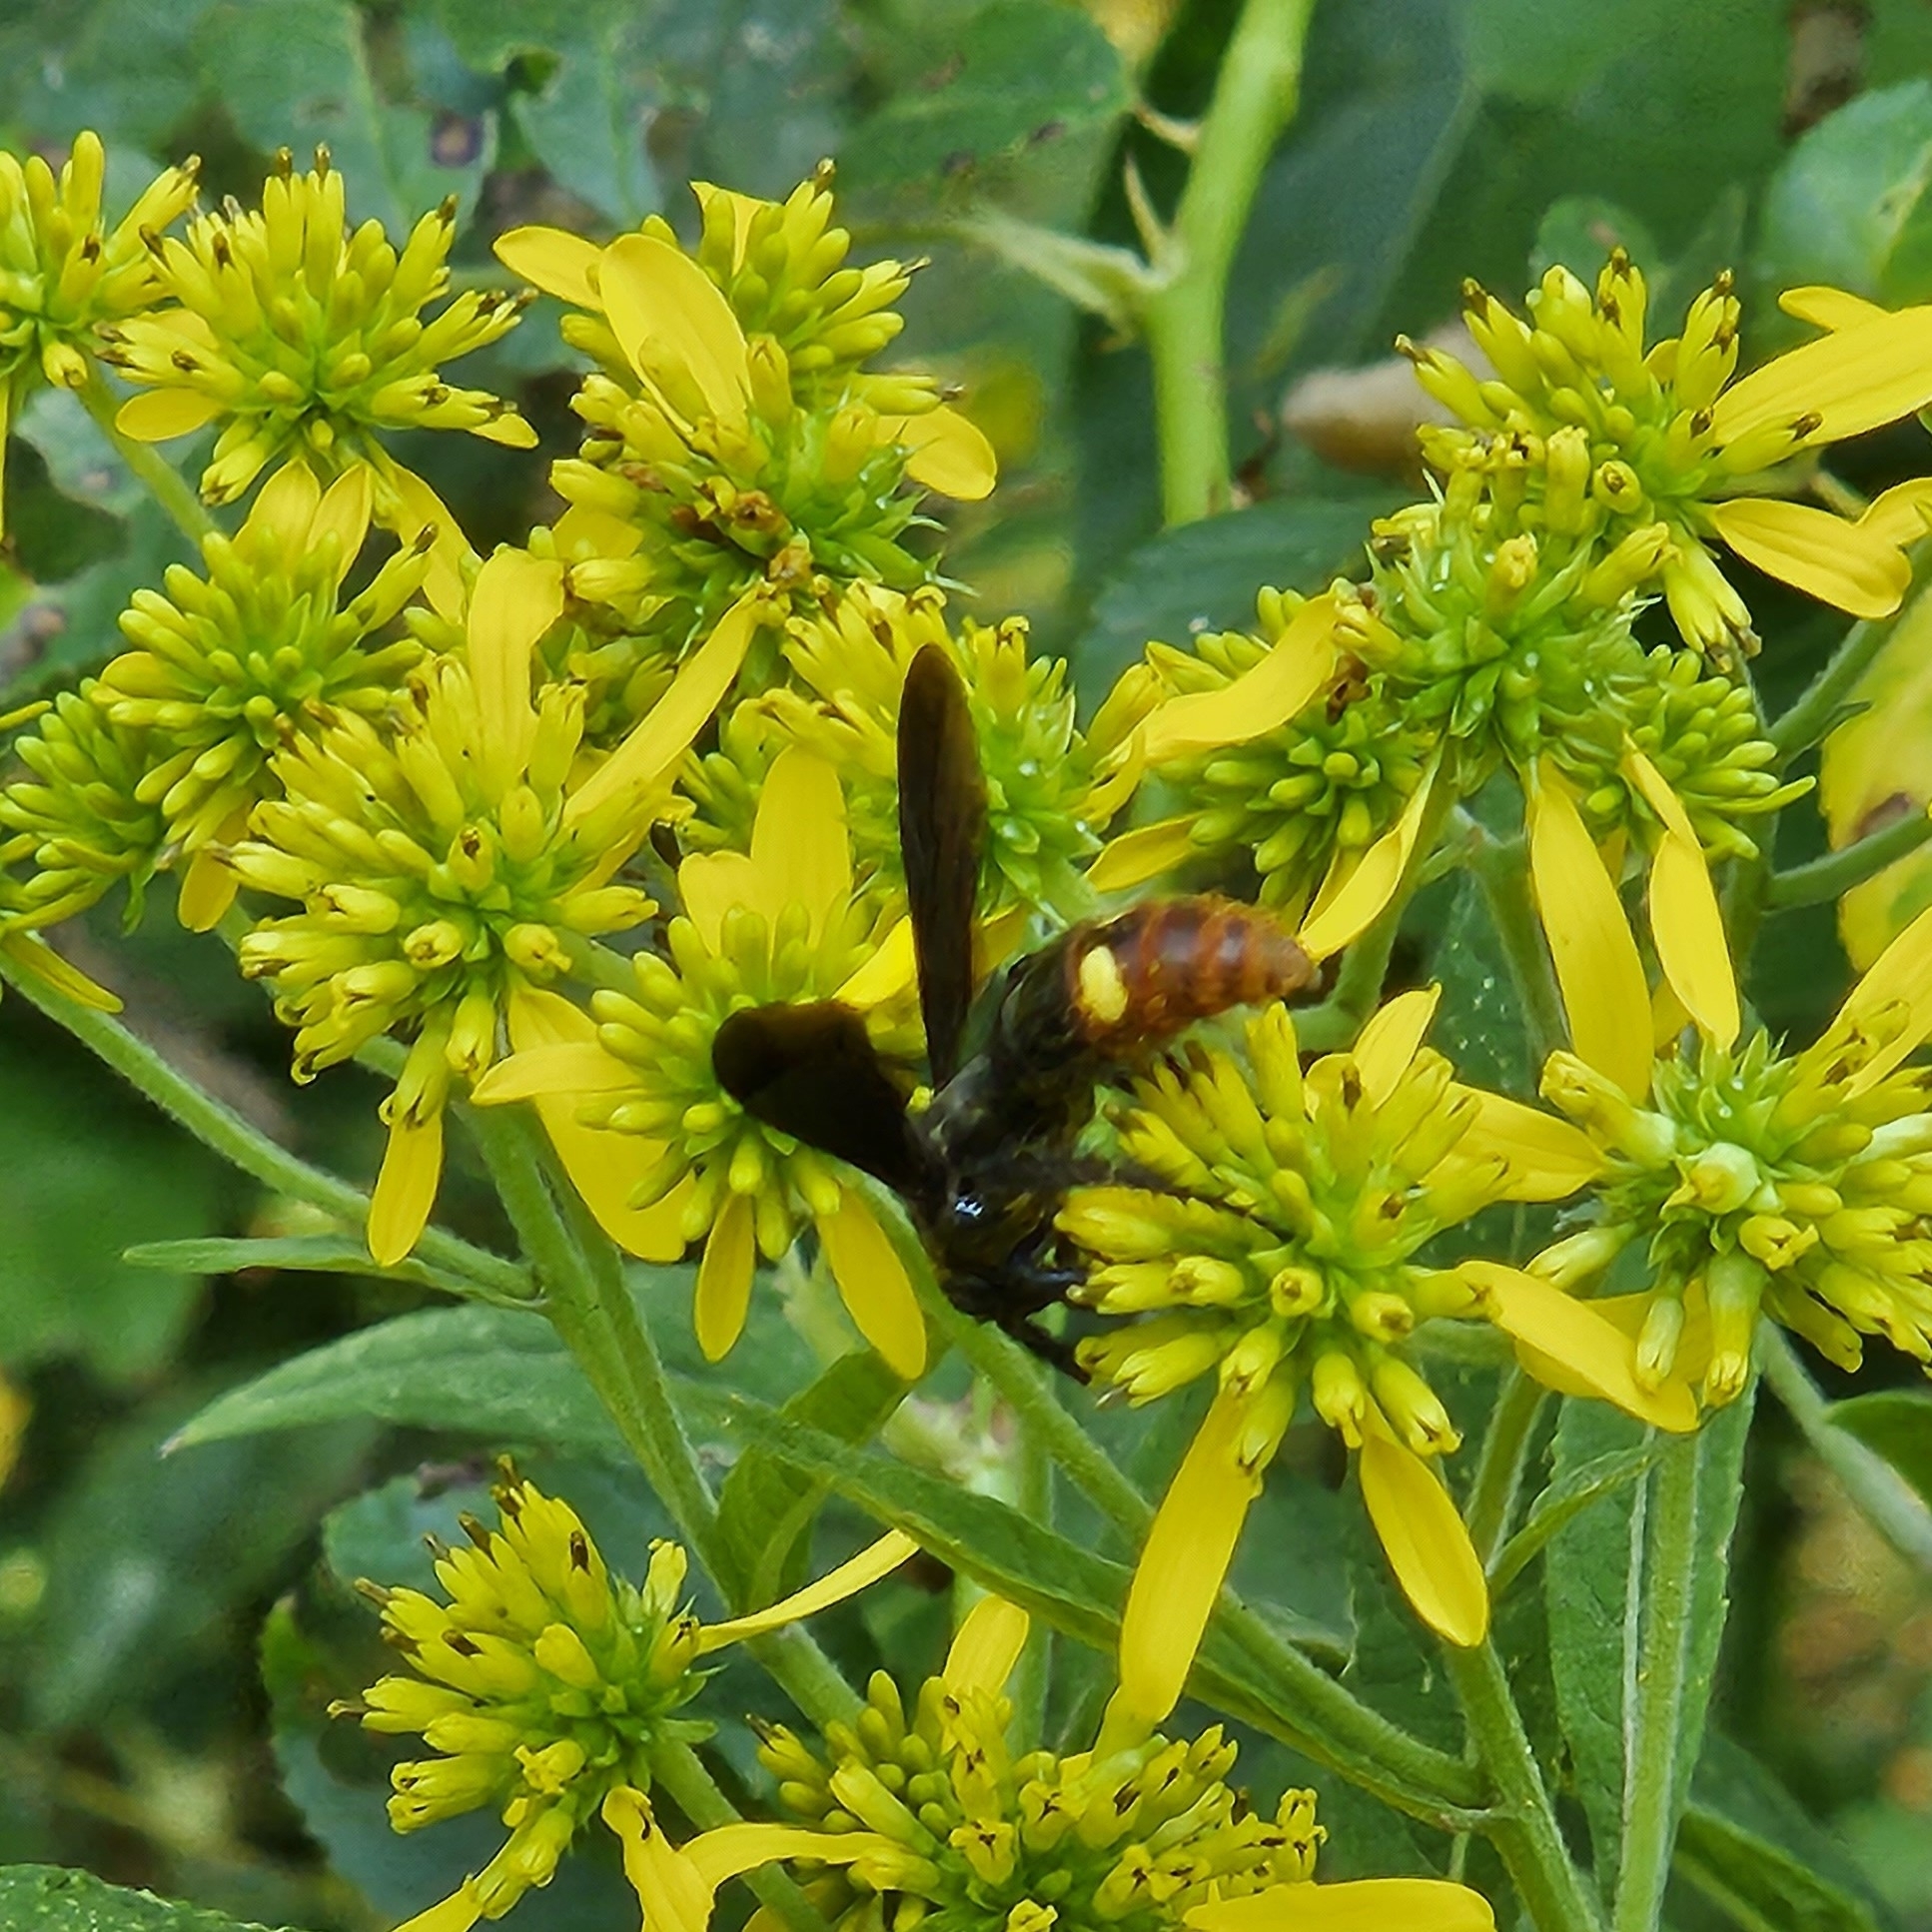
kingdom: Animalia
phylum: Arthropoda
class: Insecta
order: Hymenoptera
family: Scoliidae
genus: Scolia
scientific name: Scolia dubia
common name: Blue-winged scoliid wasp
